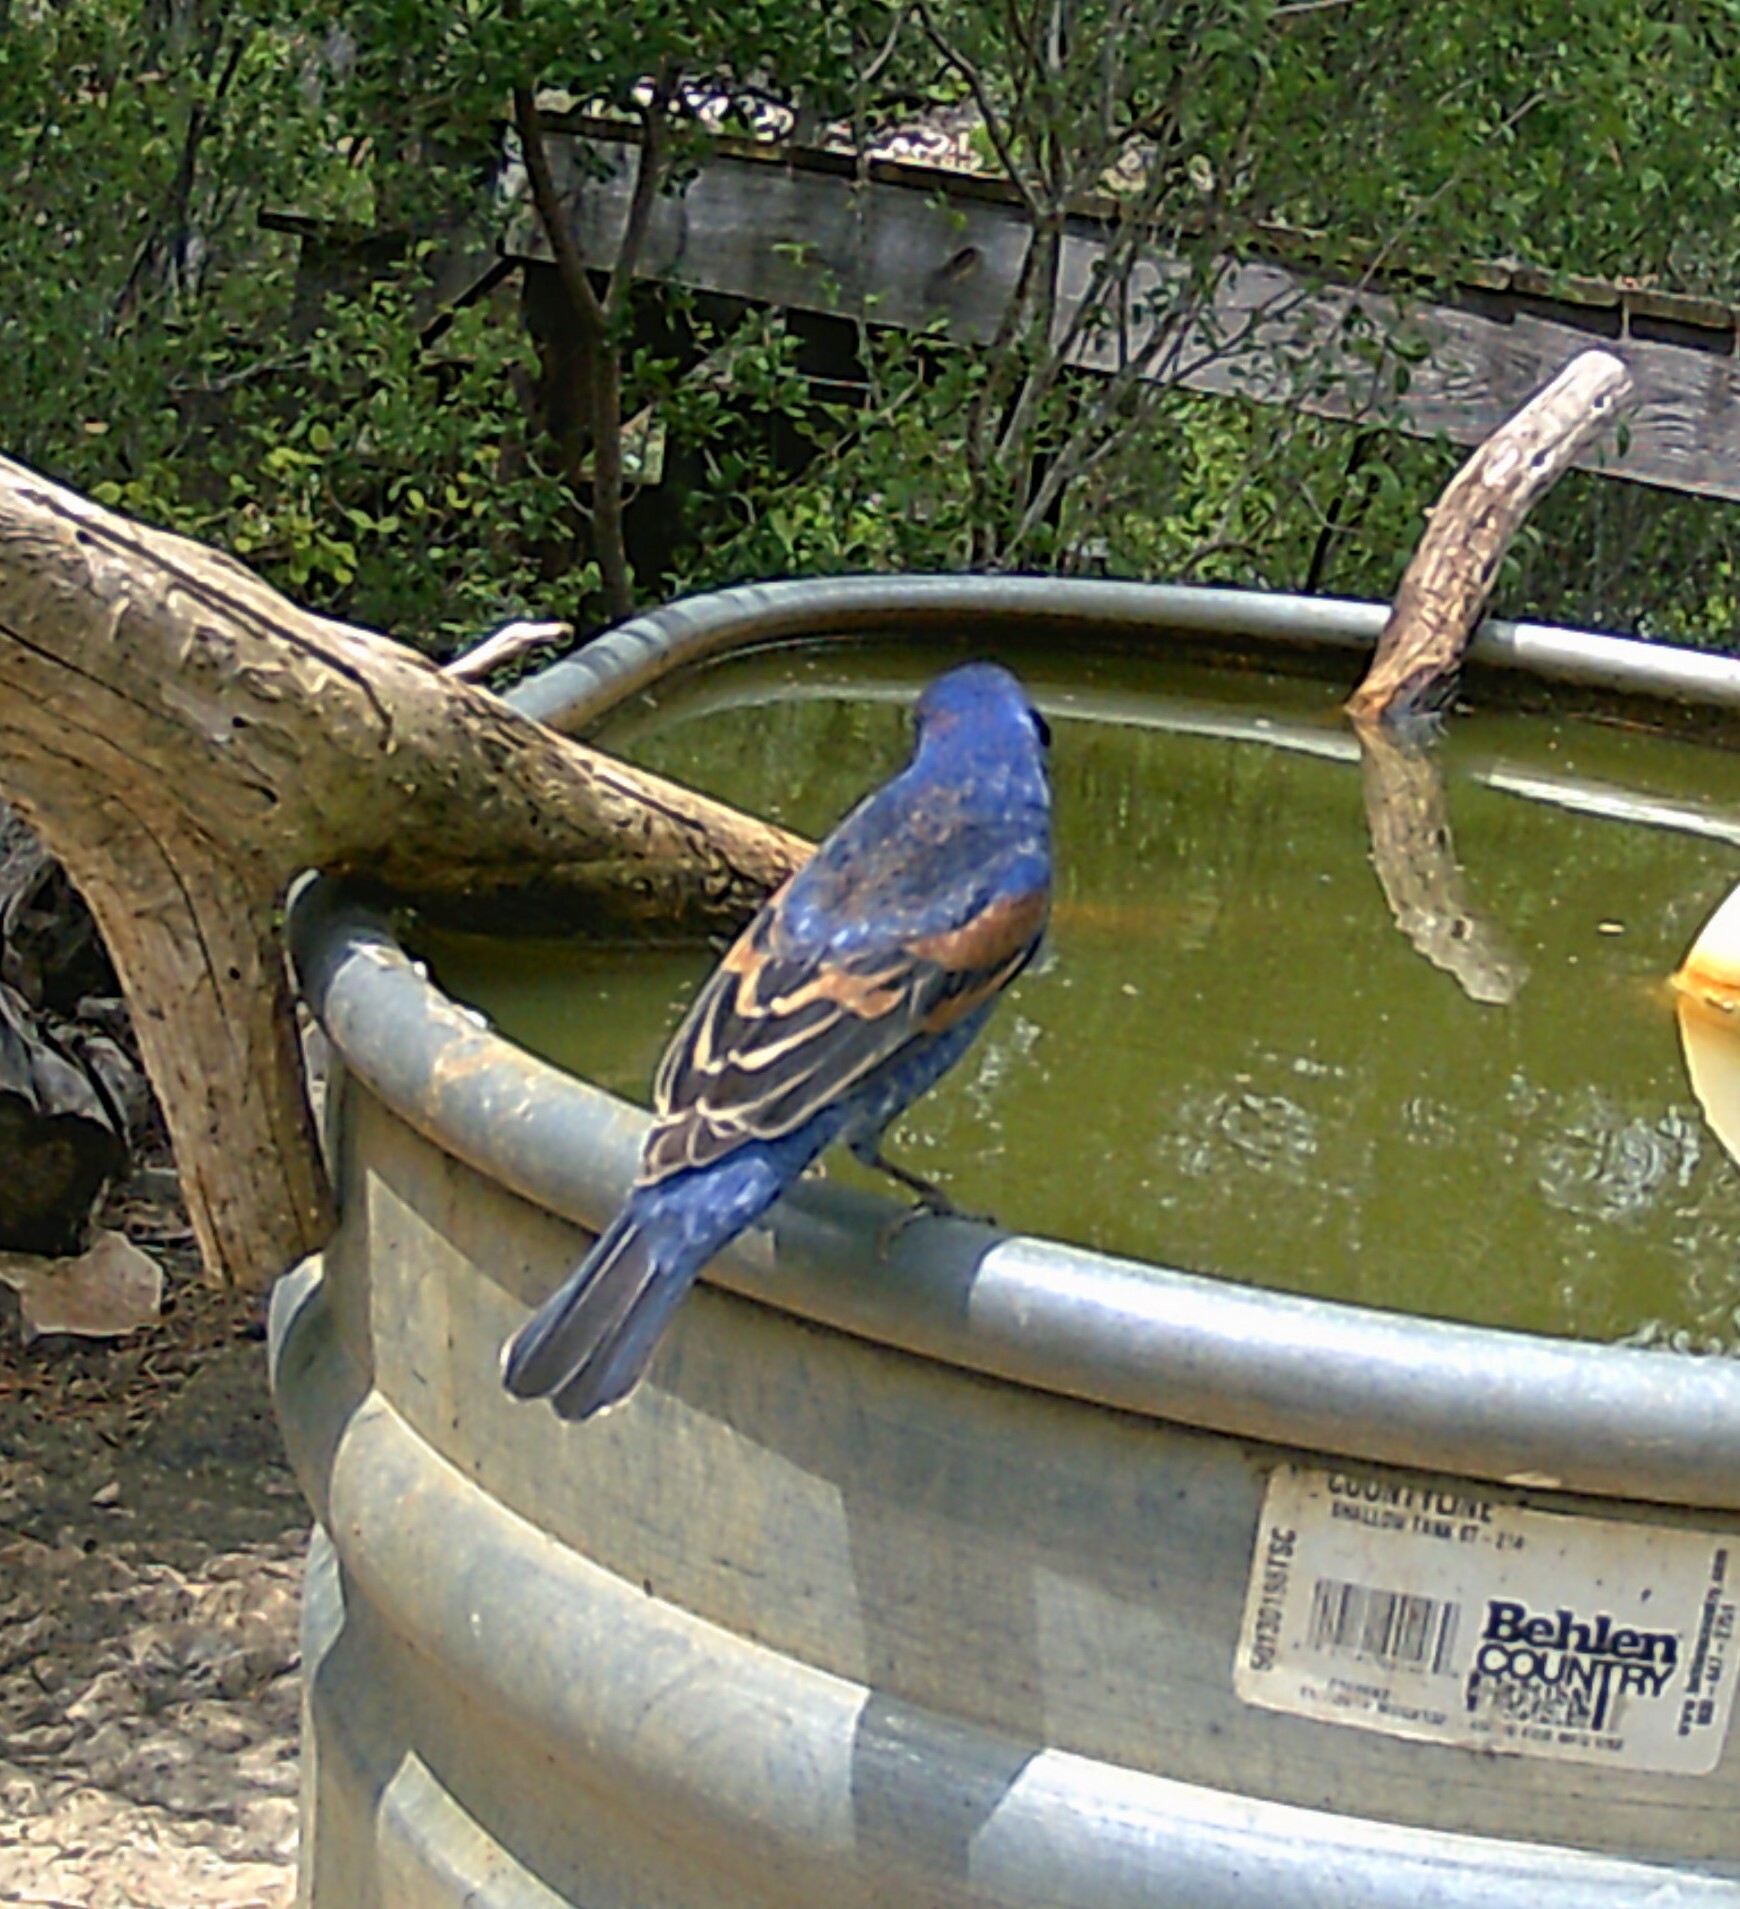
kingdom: Animalia
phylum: Chordata
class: Aves
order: Passeriformes
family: Cardinalidae
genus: Passerina
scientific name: Passerina caerulea
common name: Blue grosbeak
